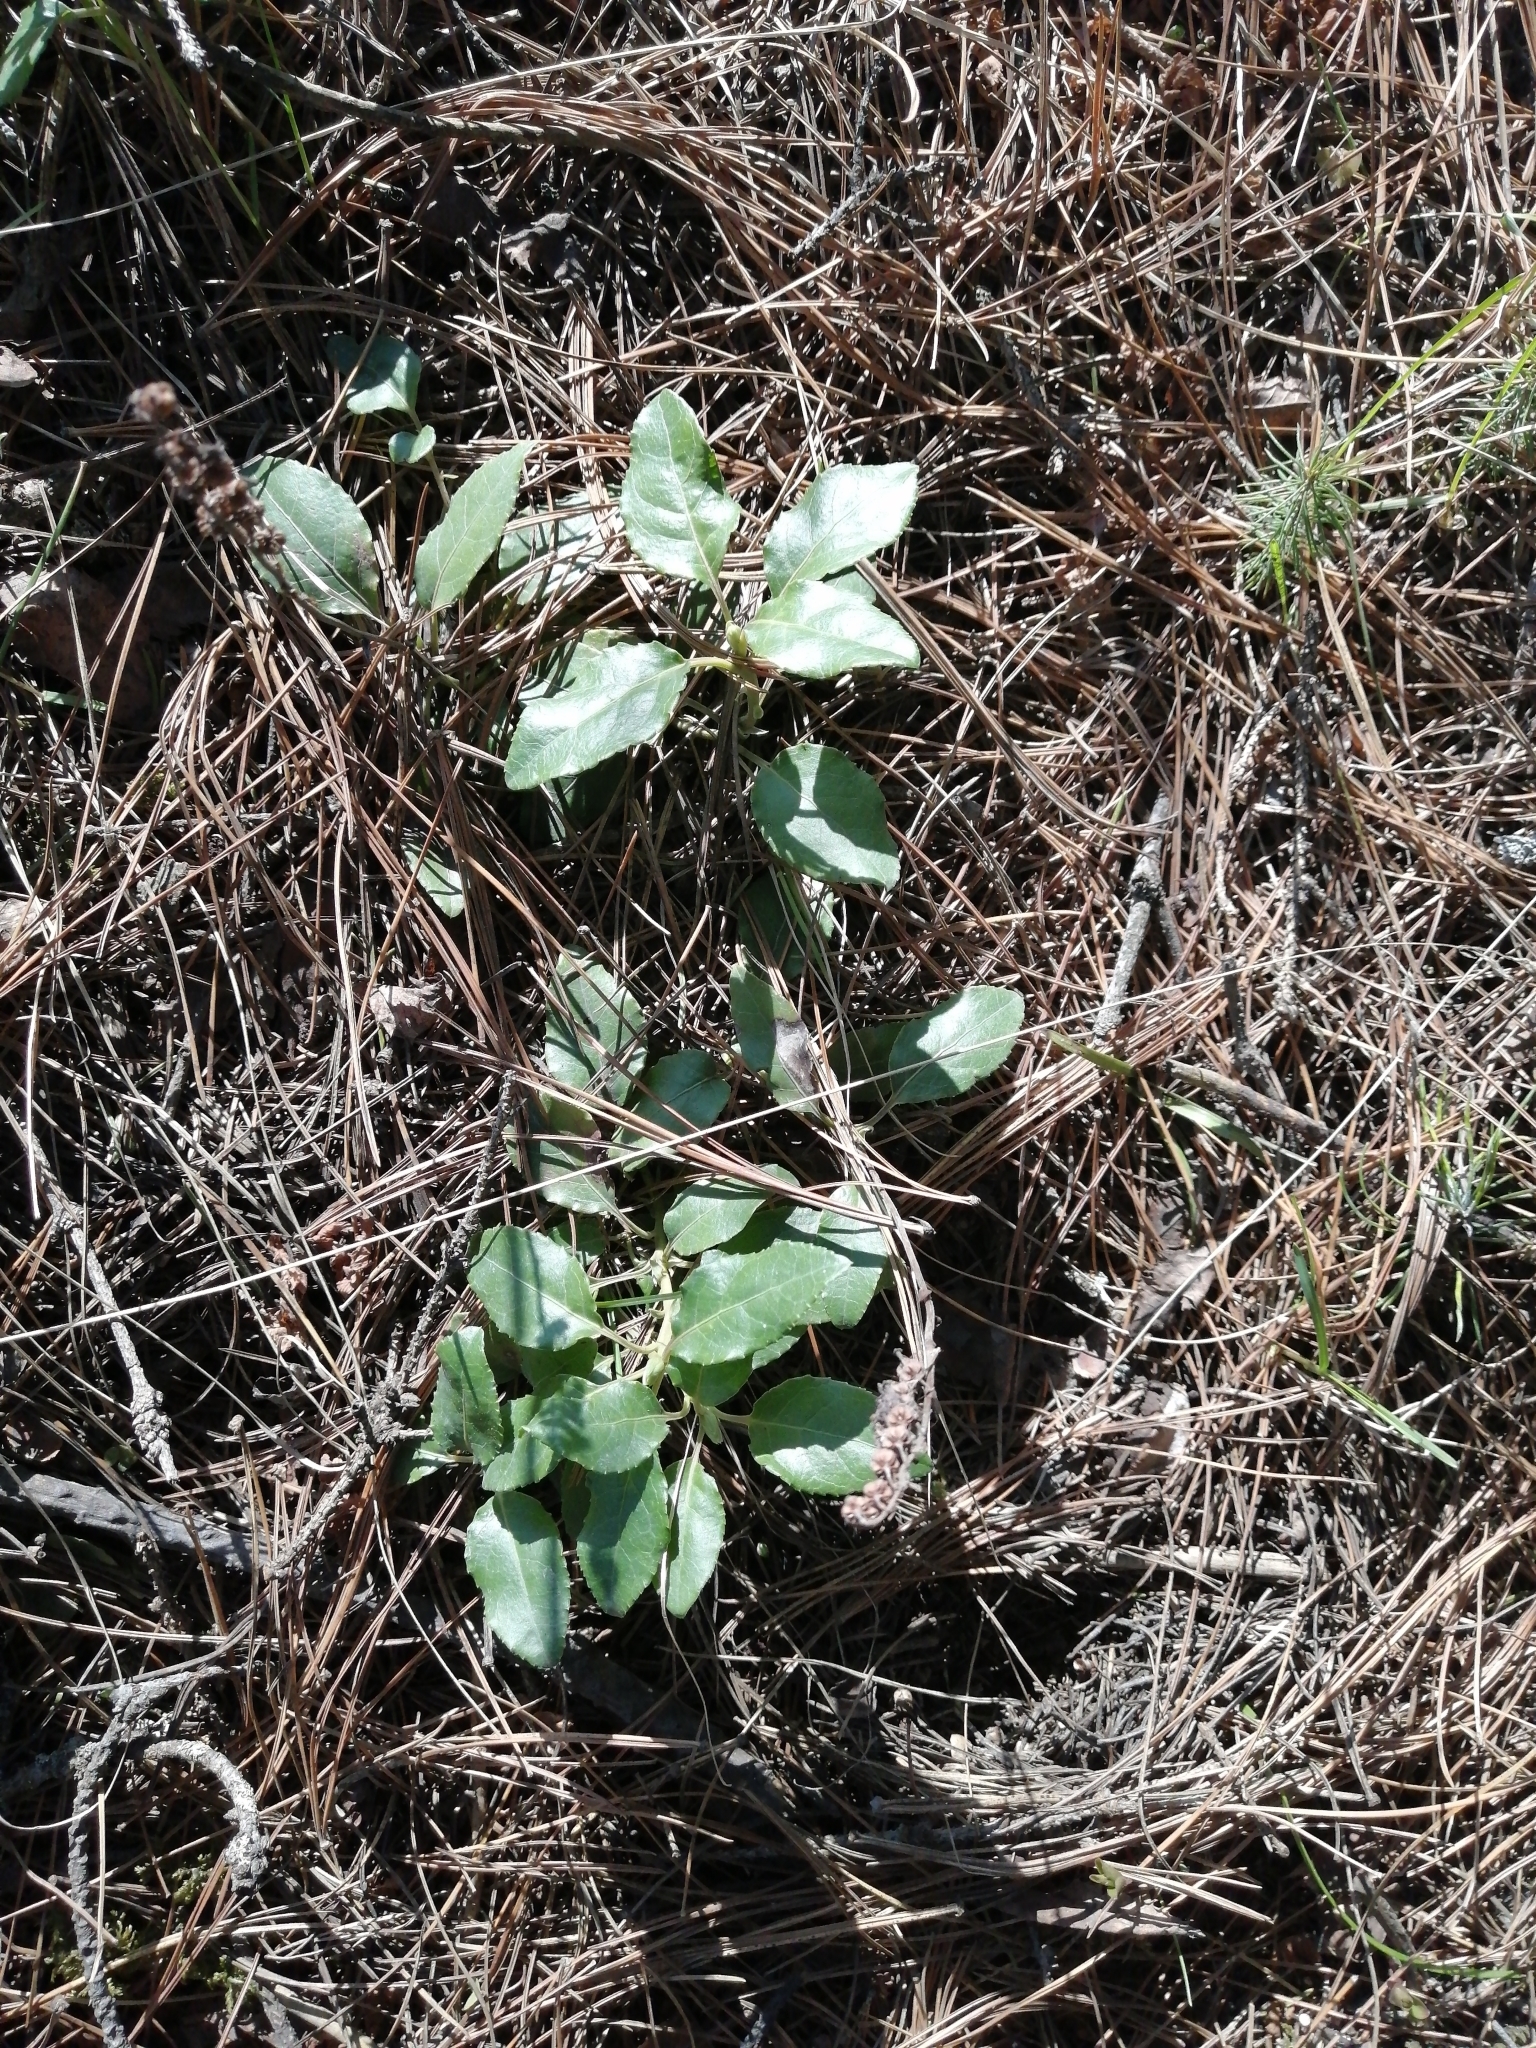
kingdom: Plantae
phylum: Tracheophyta
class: Magnoliopsida
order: Ericales
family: Ericaceae
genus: Orthilia
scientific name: Orthilia secunda
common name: One-sided orthilia
